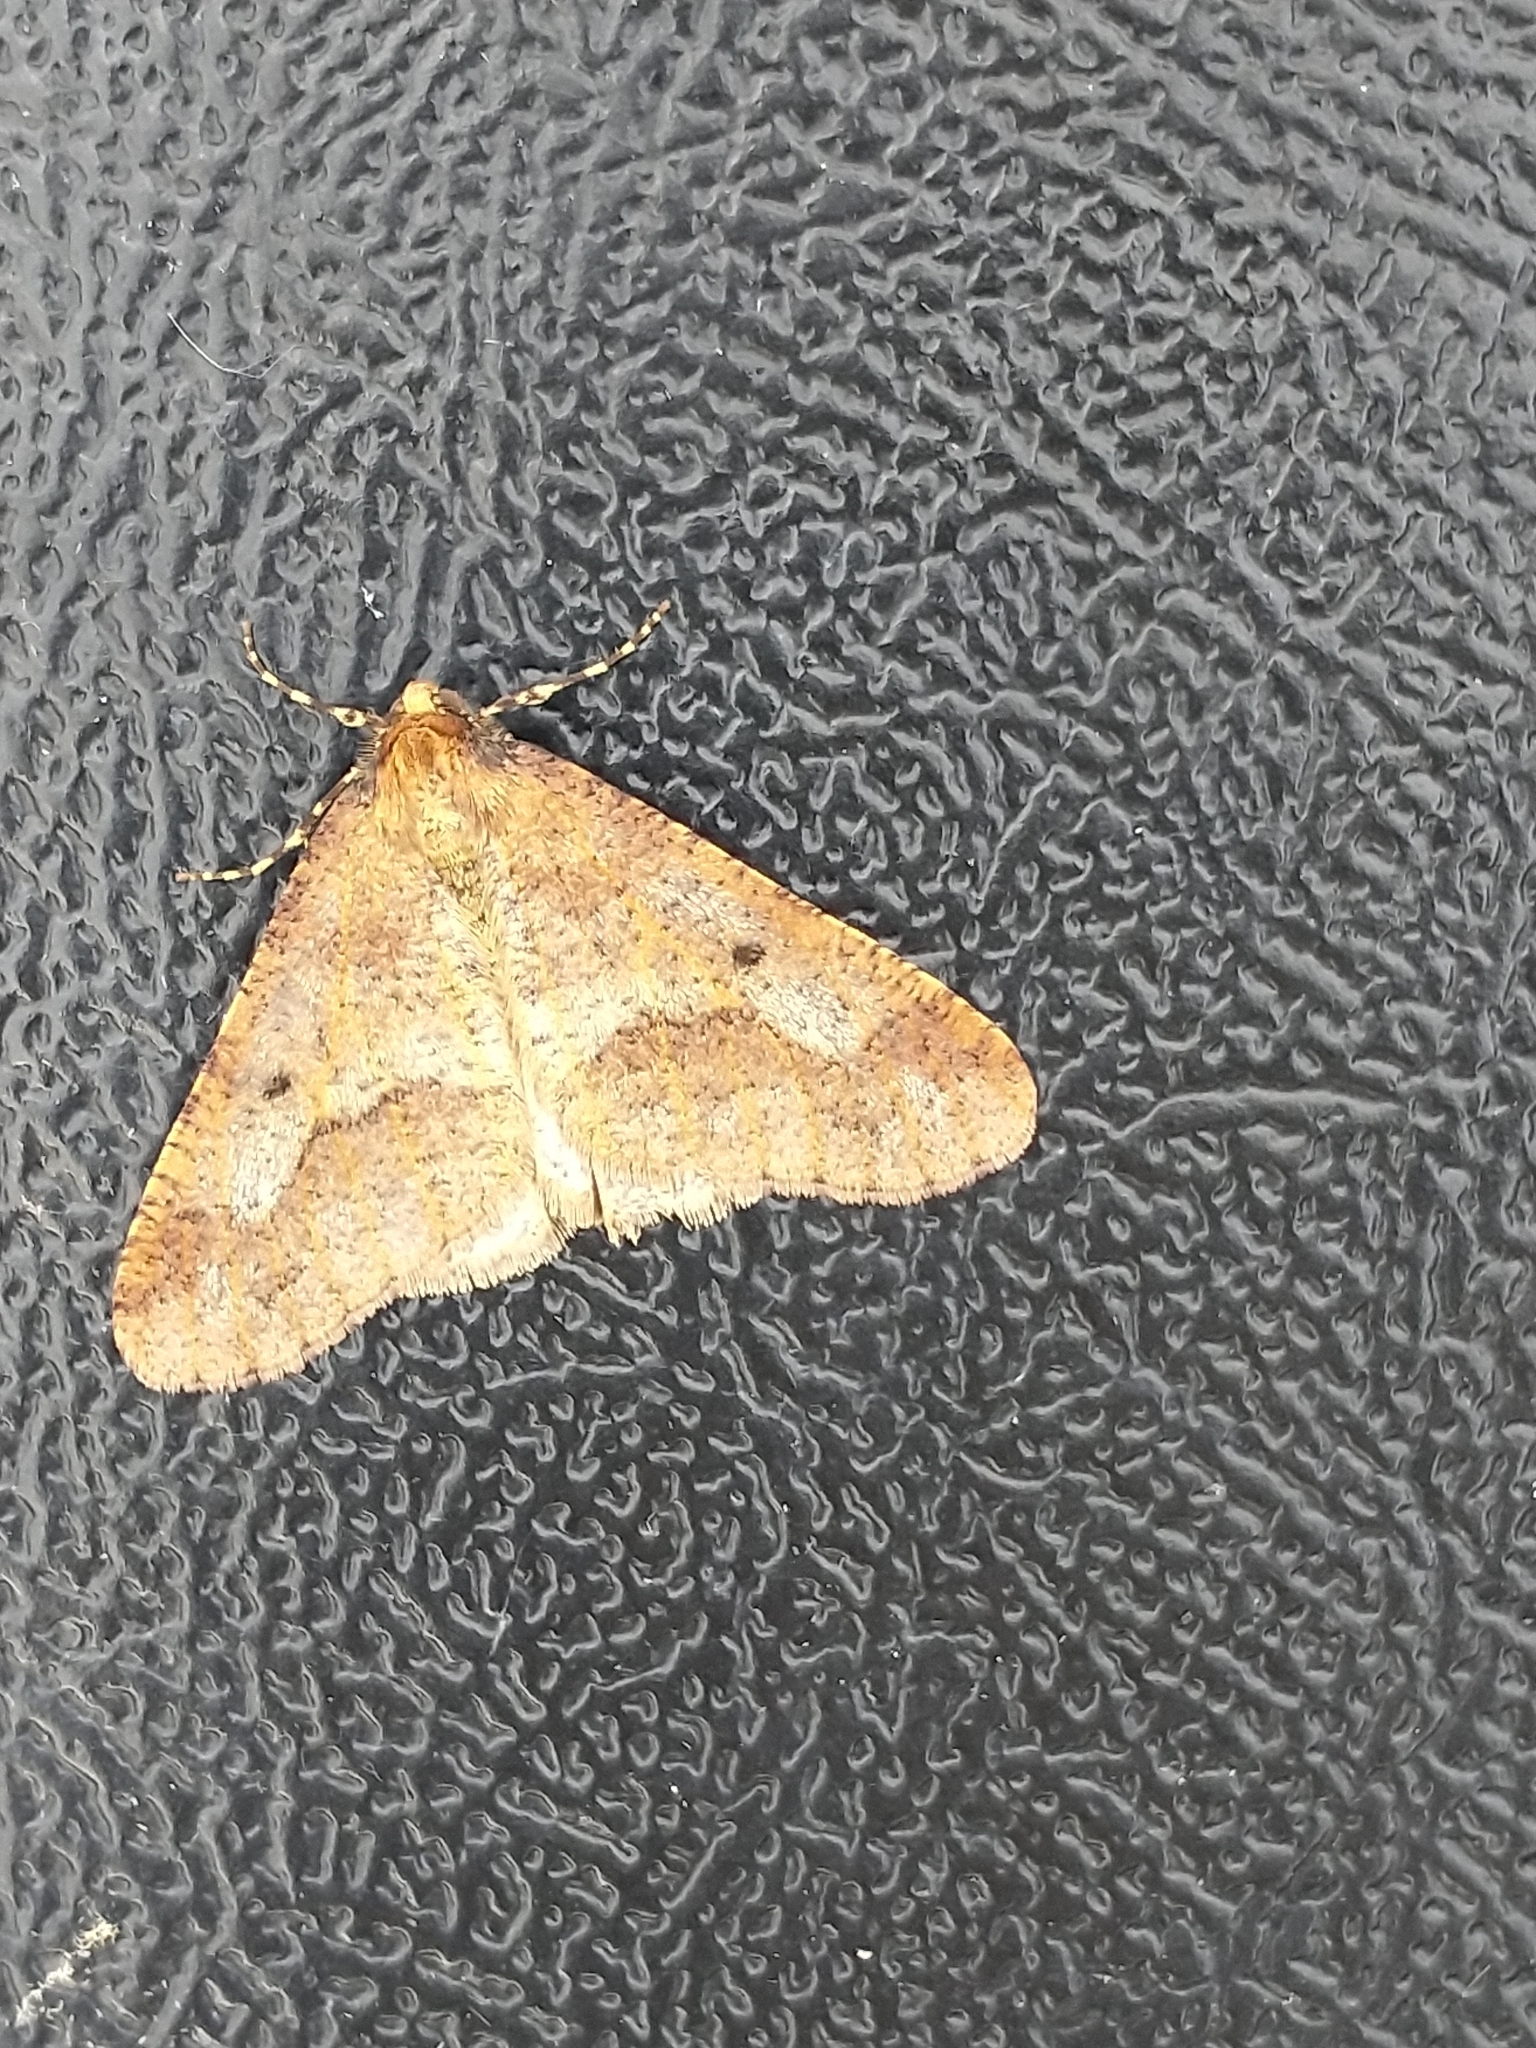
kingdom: Animalia
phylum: Arthropoda
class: Insecta
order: Lepidoptera
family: Geometridae
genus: Erannis
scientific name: Erannis defoliaria
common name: Mottled umber
